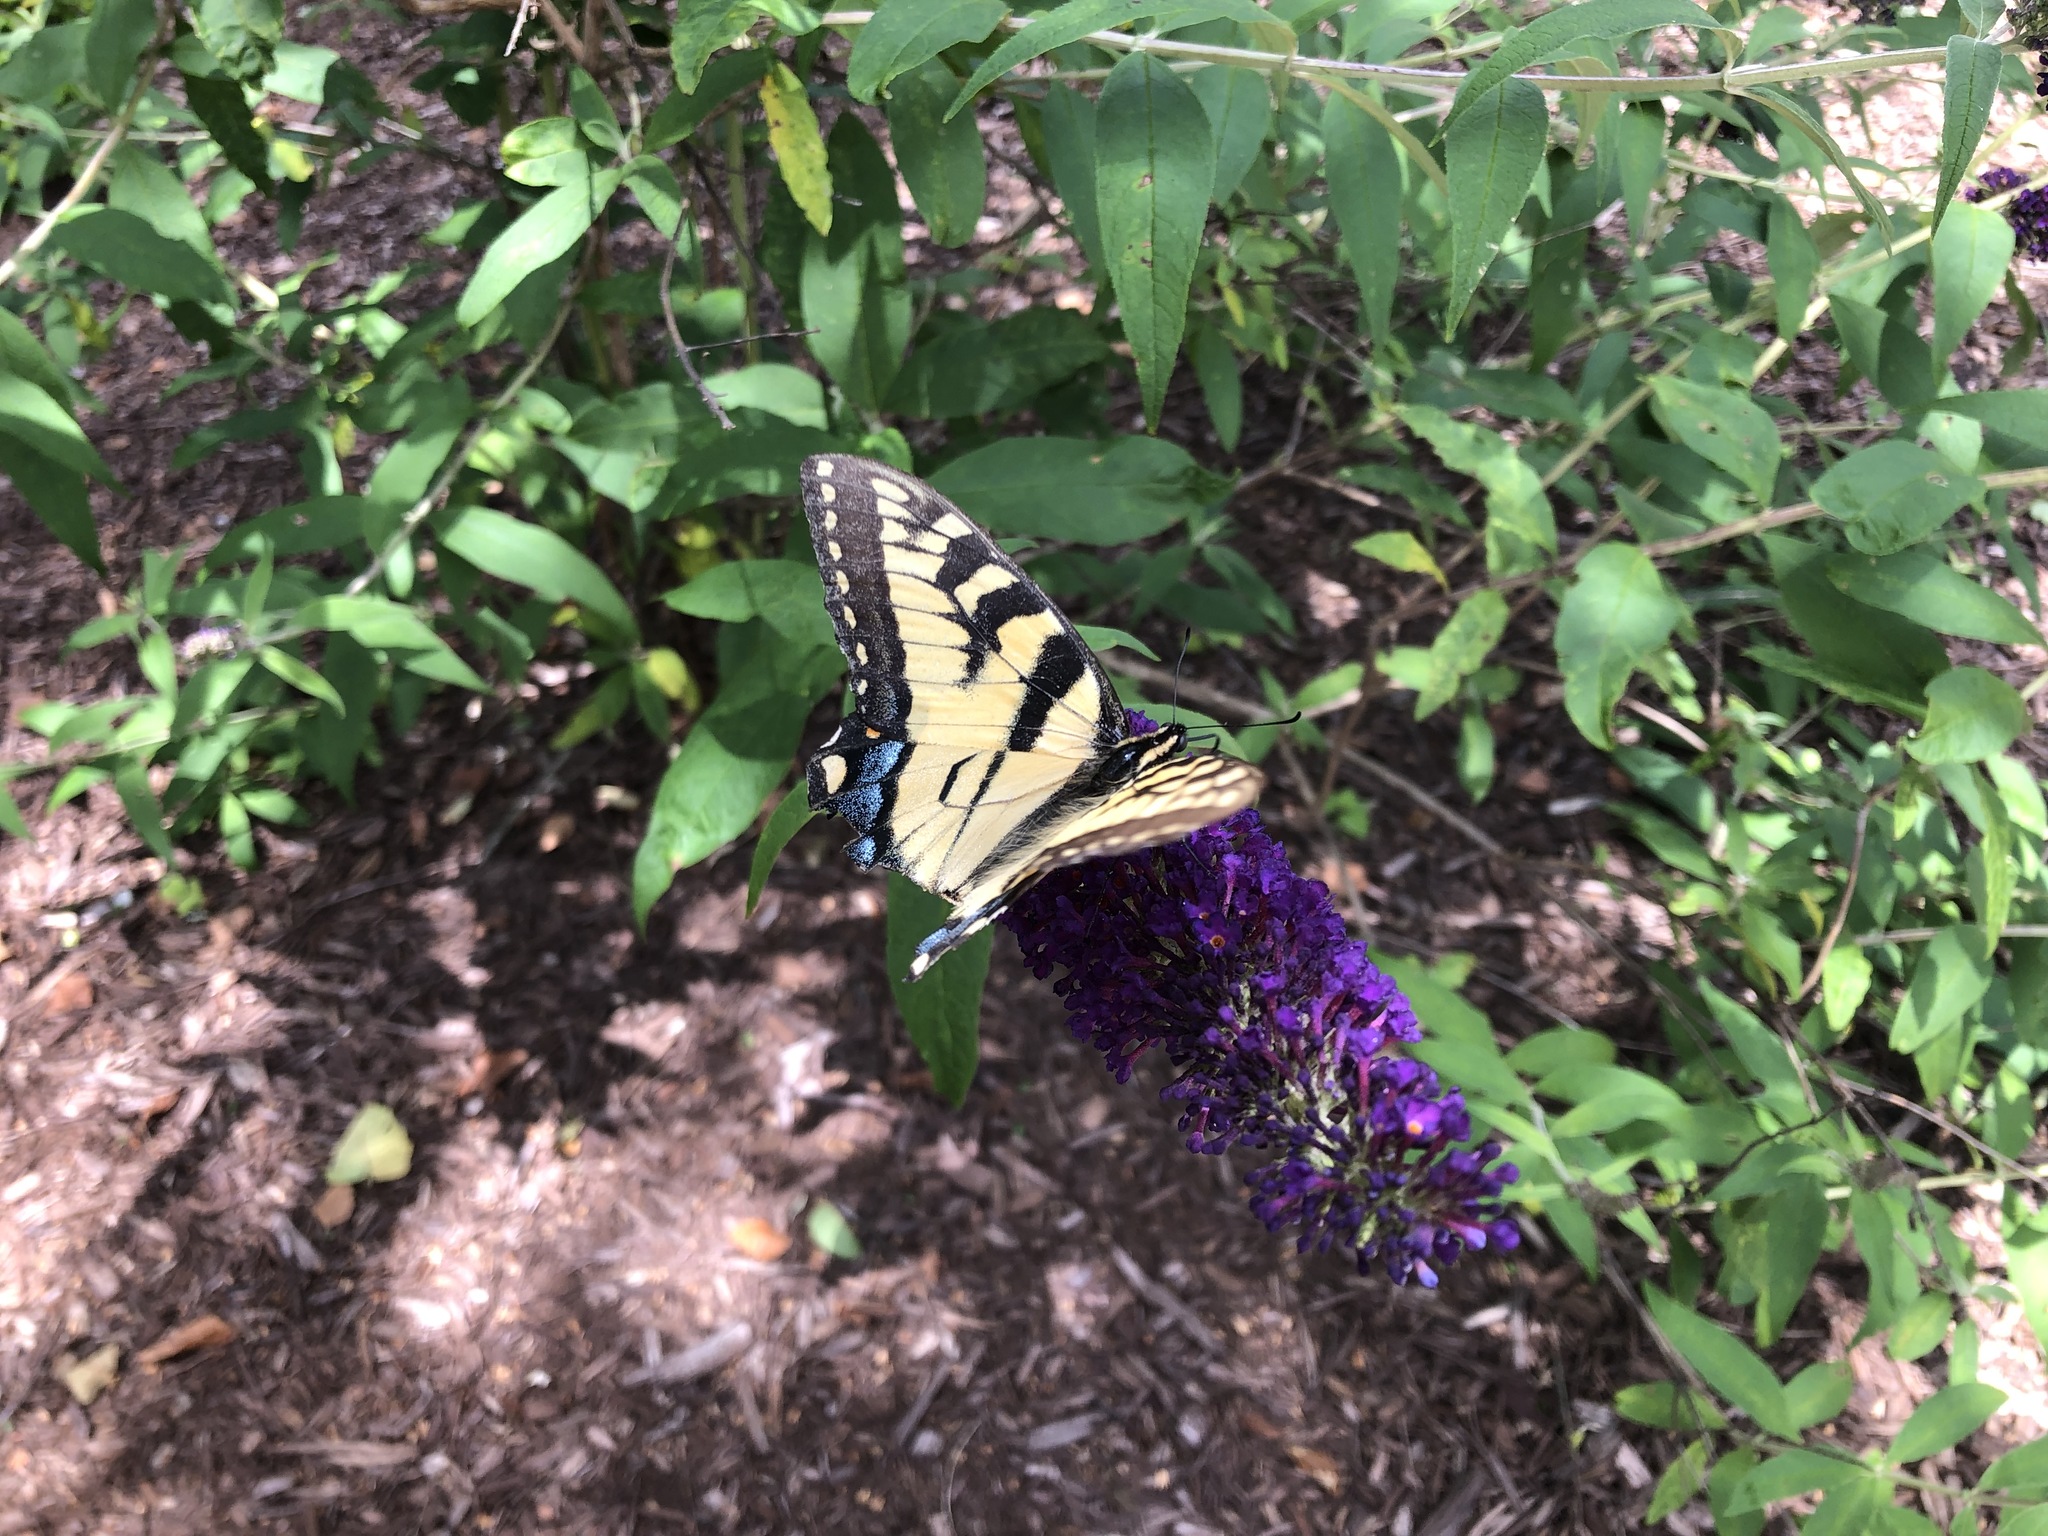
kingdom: Animalia
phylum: Arthropoda
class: Insecta
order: Lepidoptera
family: Papilionidae
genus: Papilio
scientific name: Papilio glaucus
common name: Tiger swallowtail
